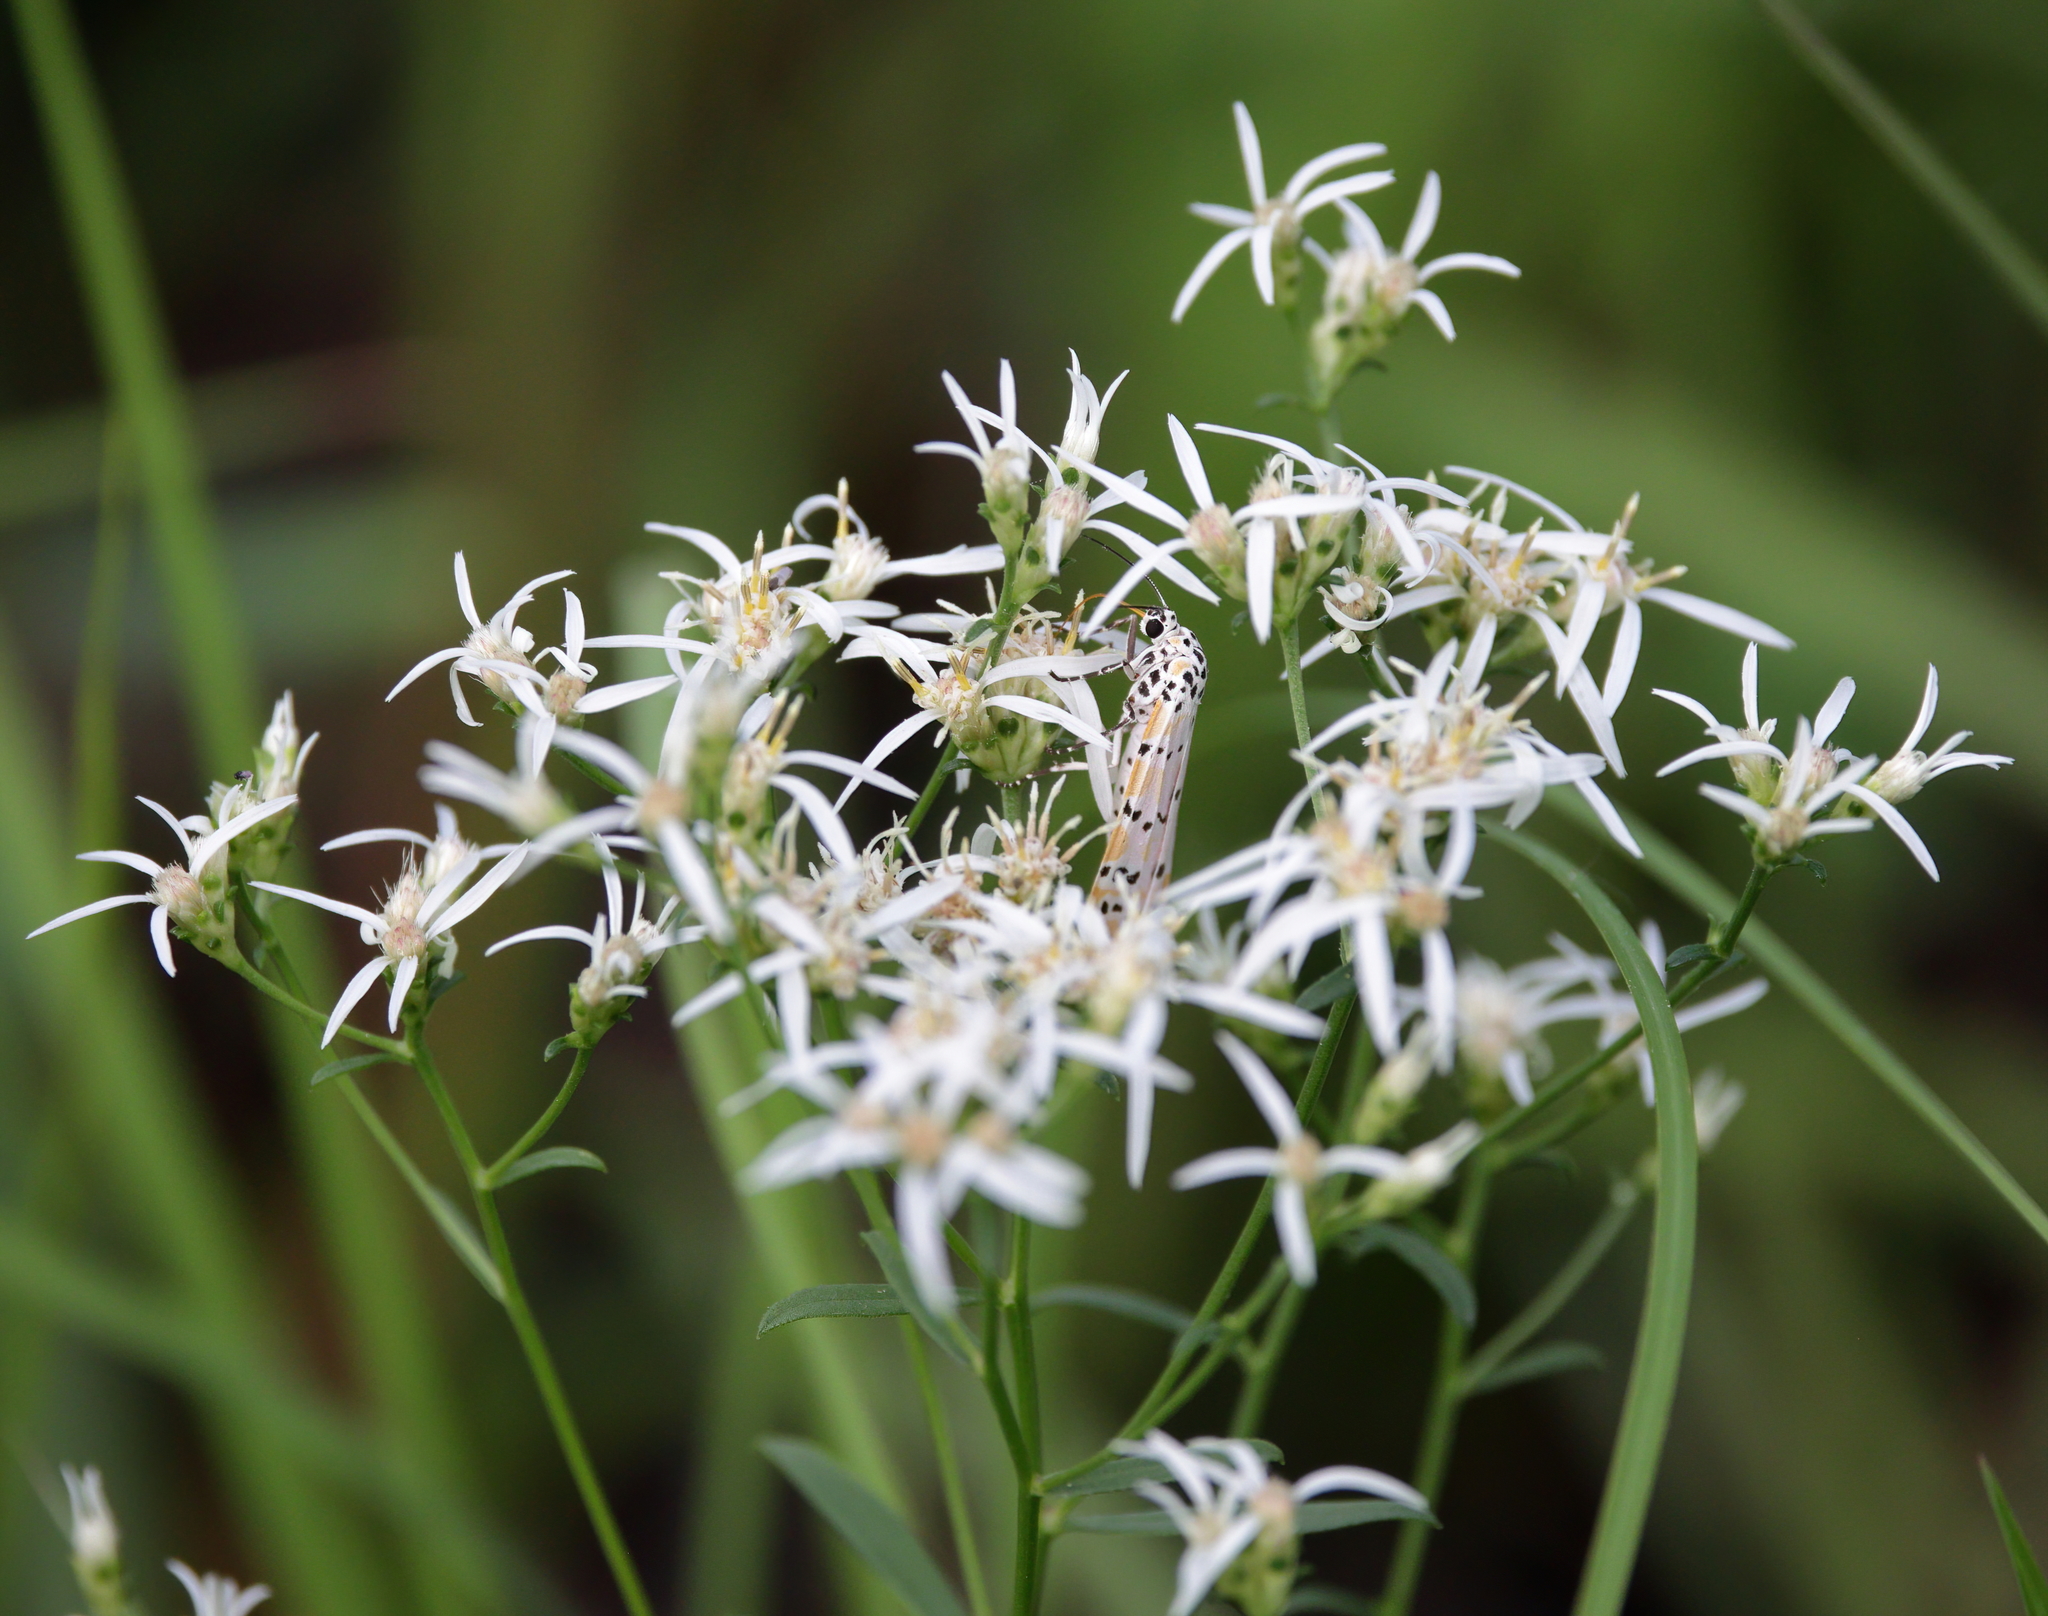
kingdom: Animalia
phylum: Arthropoda
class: Insecta
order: Lepidoptera
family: Erebidae
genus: Utetheisa
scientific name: Utetheisa ornatrix
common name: Beautiful utetheisa
